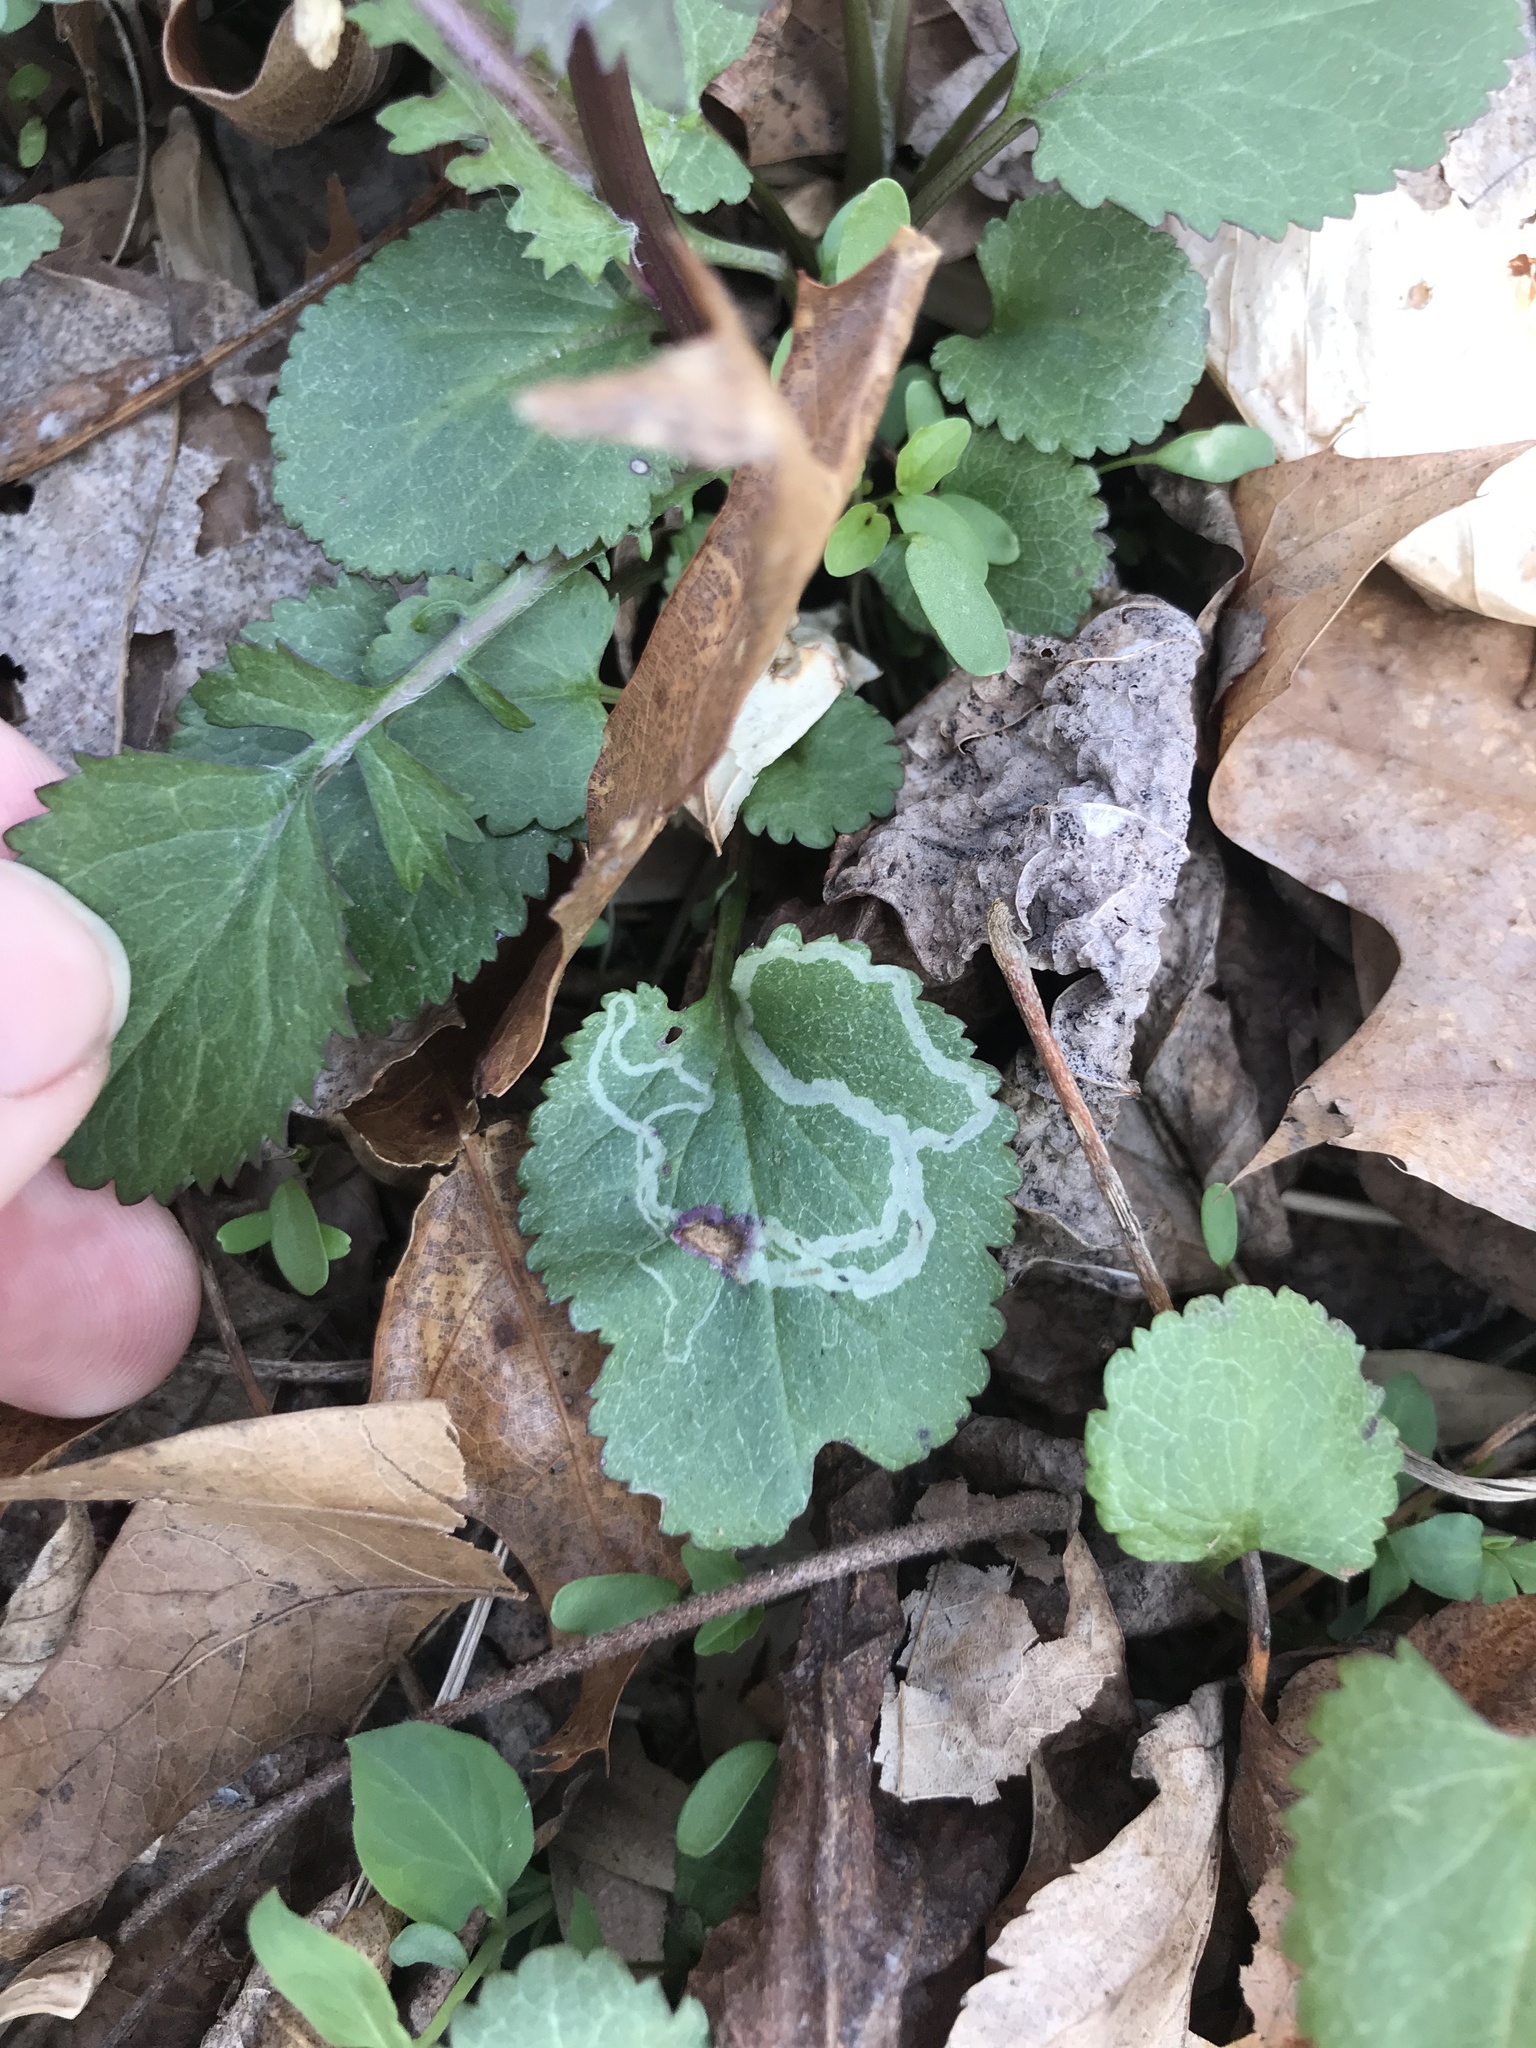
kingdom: Animalia
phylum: Arthropoda
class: Insecta
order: Lepidoptera
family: Gracillariidae
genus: Phyllocnistis
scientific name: Phyllocnistis insignis
